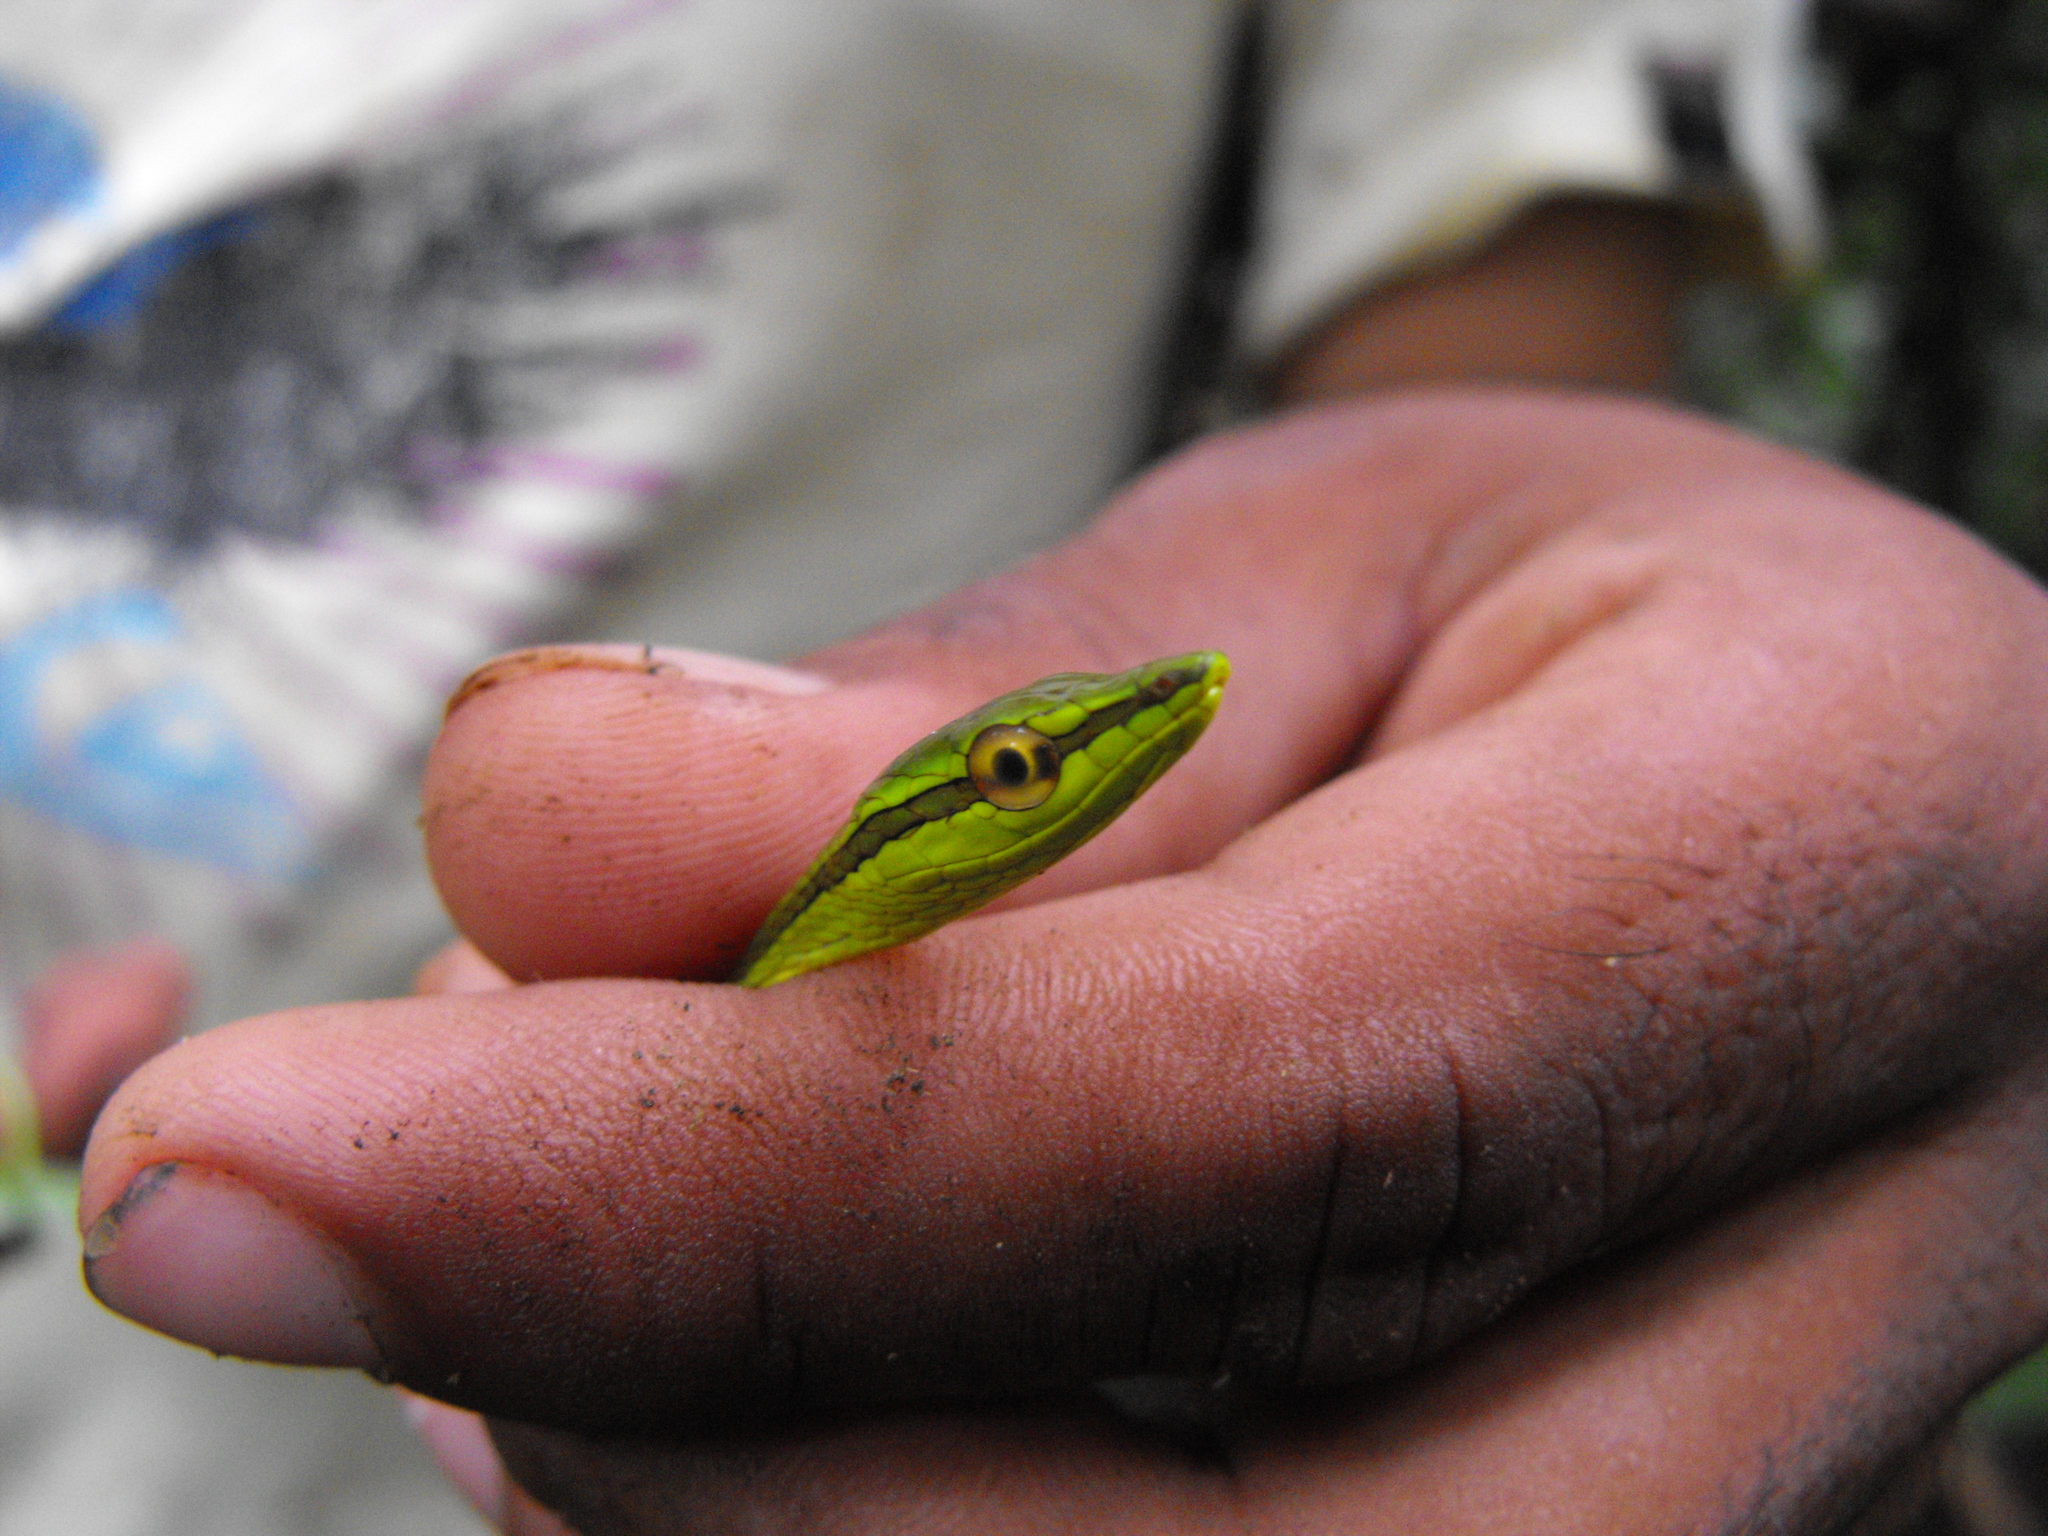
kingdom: Animalia
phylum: Chordata
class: Squamata
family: Colubridae
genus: Xenoxybelis
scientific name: Xenoxybelis argenteus
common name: Striped sharpnose snake
